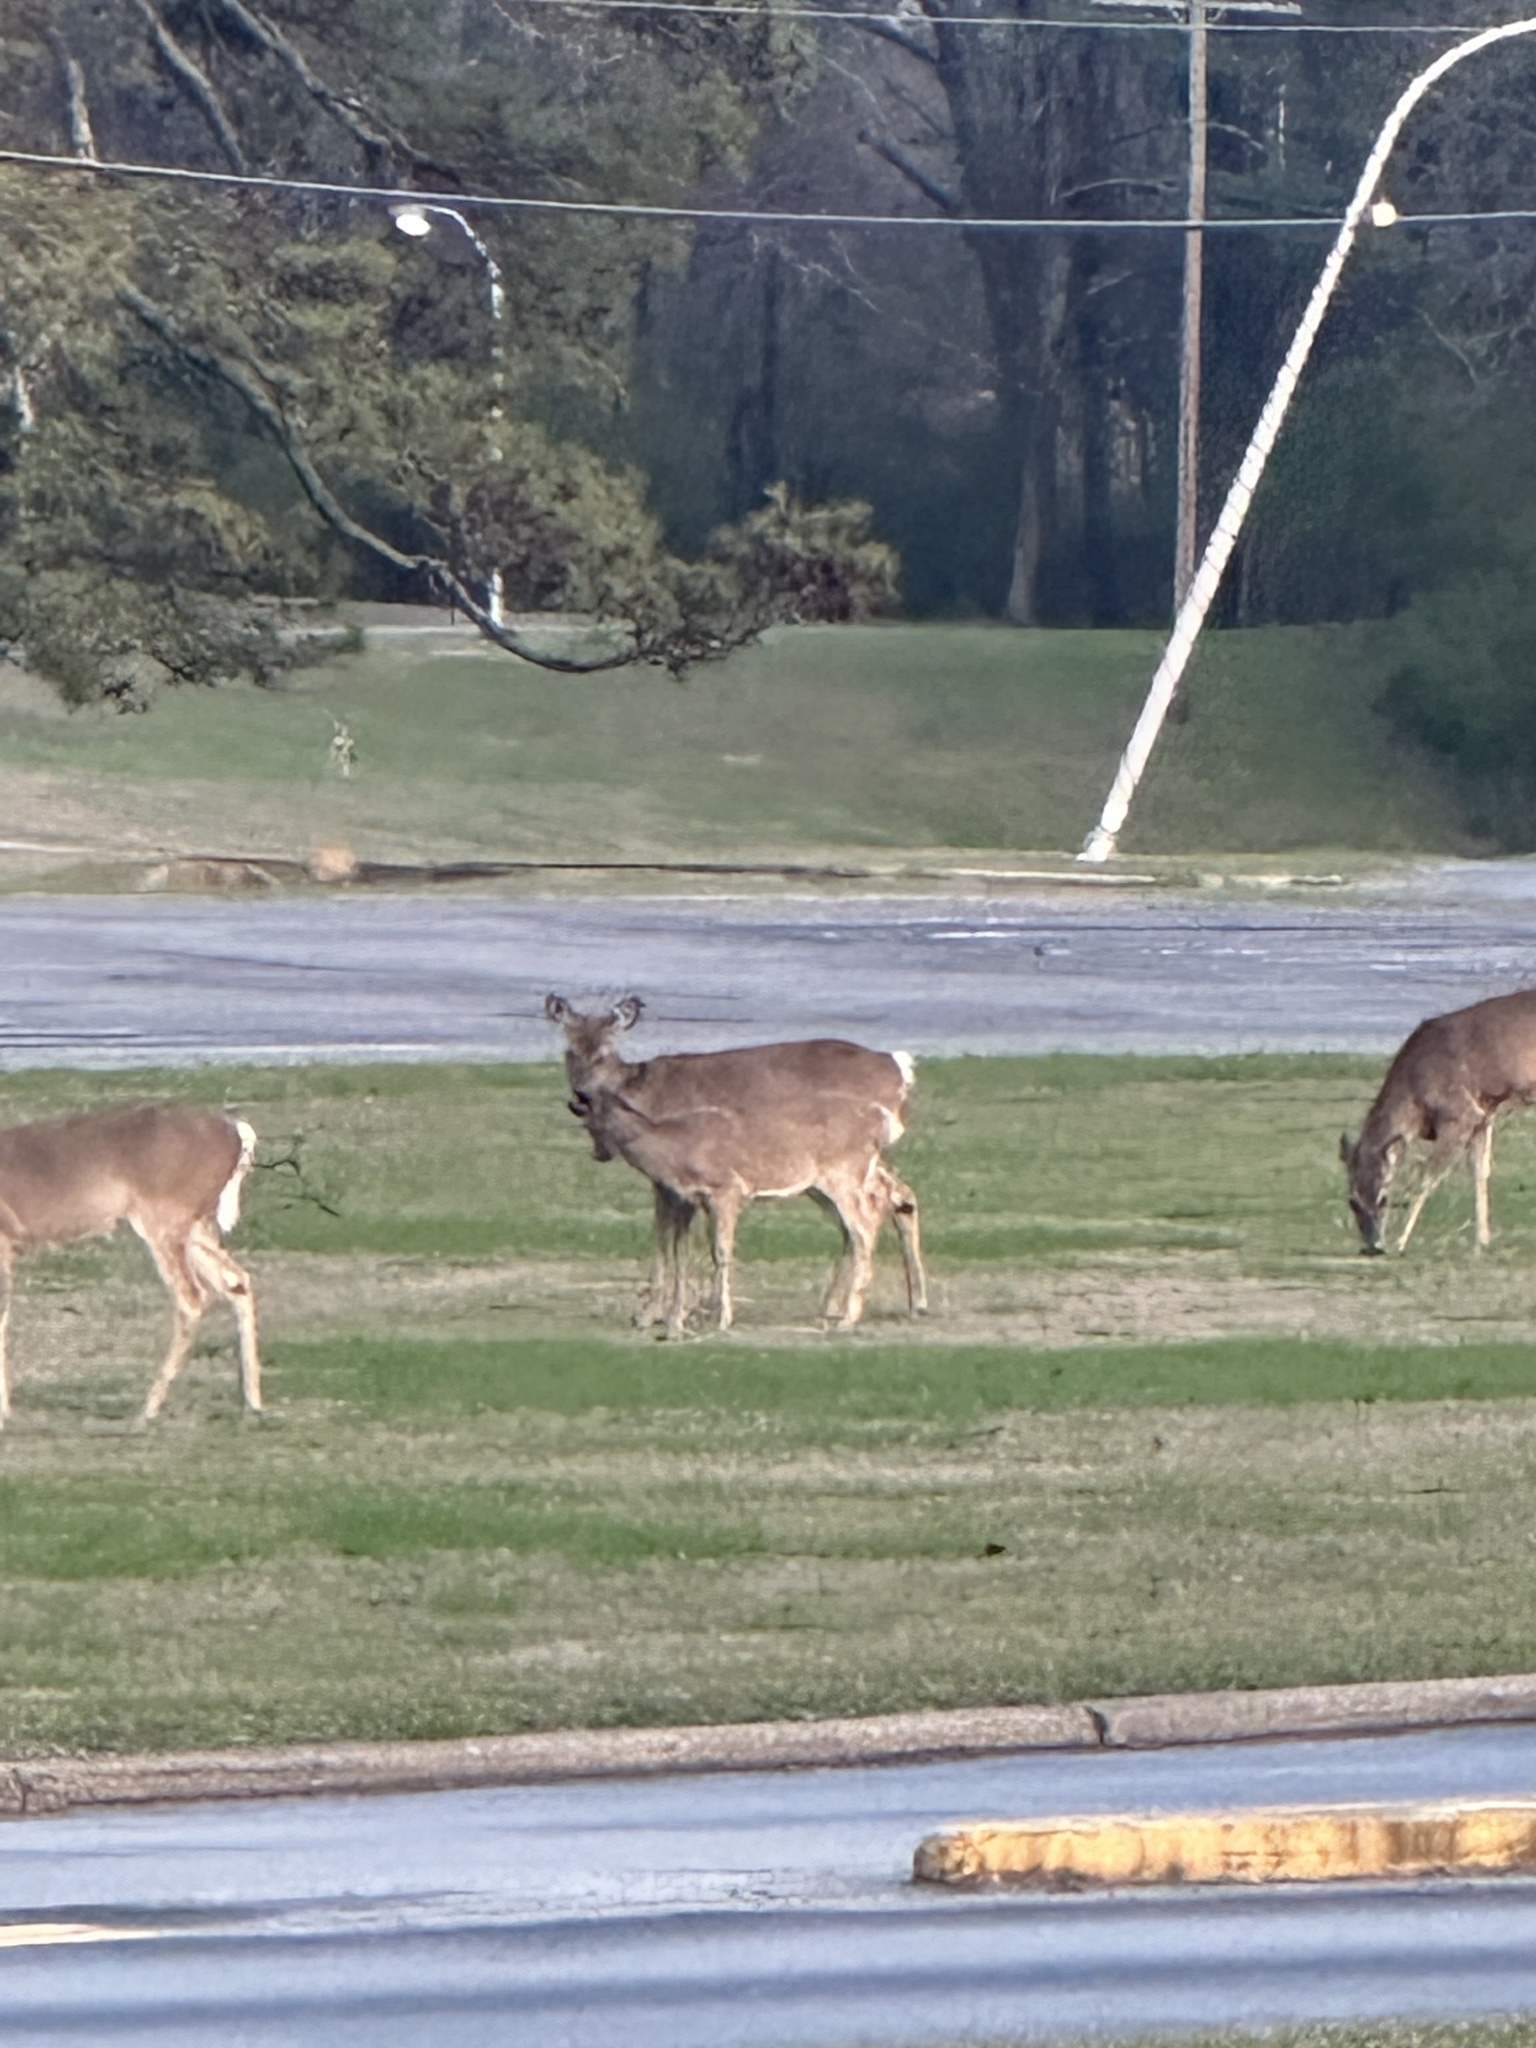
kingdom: Animalia
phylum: Chordata
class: Mammalia
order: Artiodactyla
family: Cervidae
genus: Odocoileus
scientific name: Odocoileus virginianus
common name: White-tailed deer
